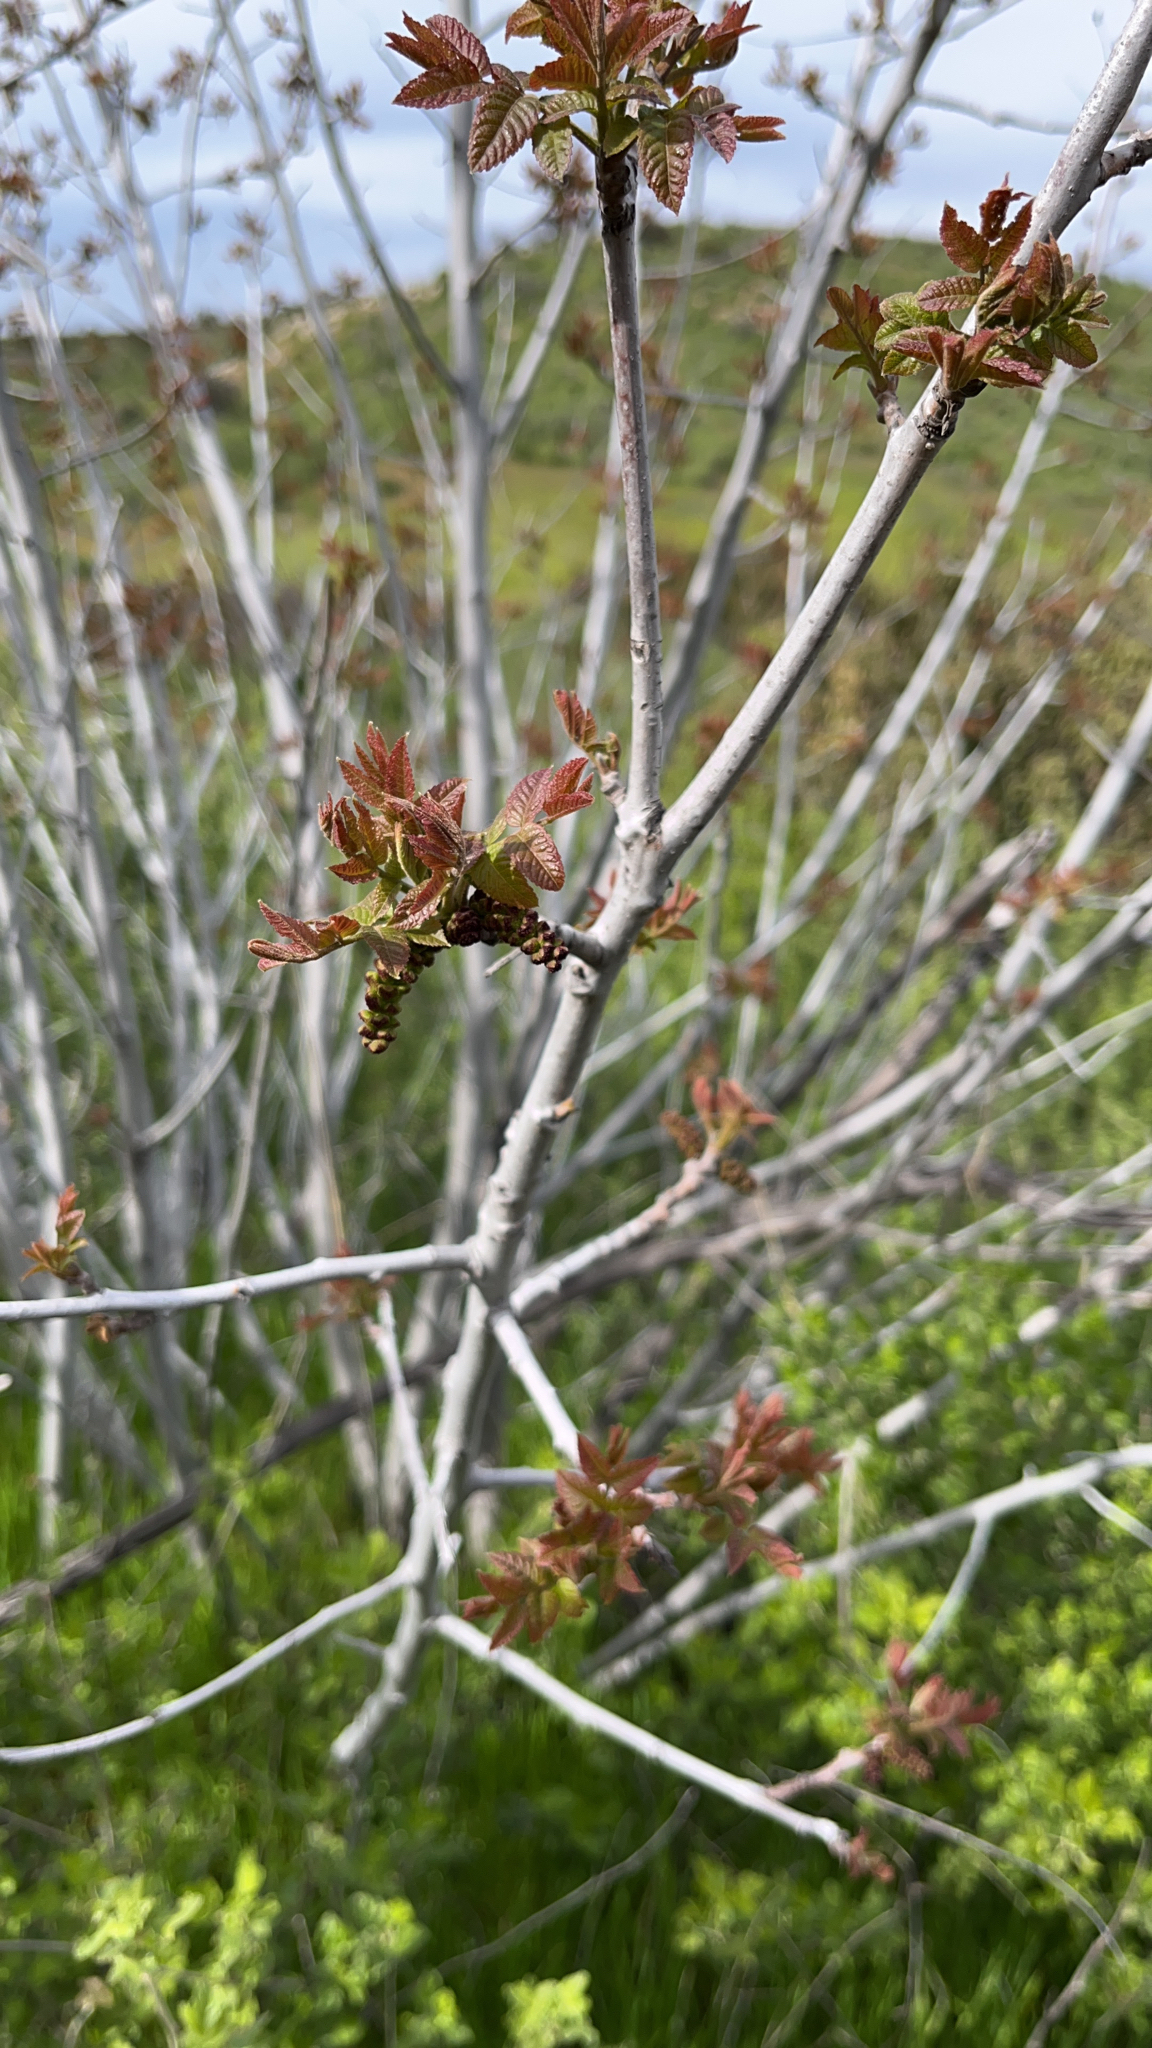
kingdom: Plantae
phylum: Tracheophyta
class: Magnoliopsida
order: Sapindales
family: Anacardiaceae
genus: Rhus
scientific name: Rhus aromatica
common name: Aromatic sumac
